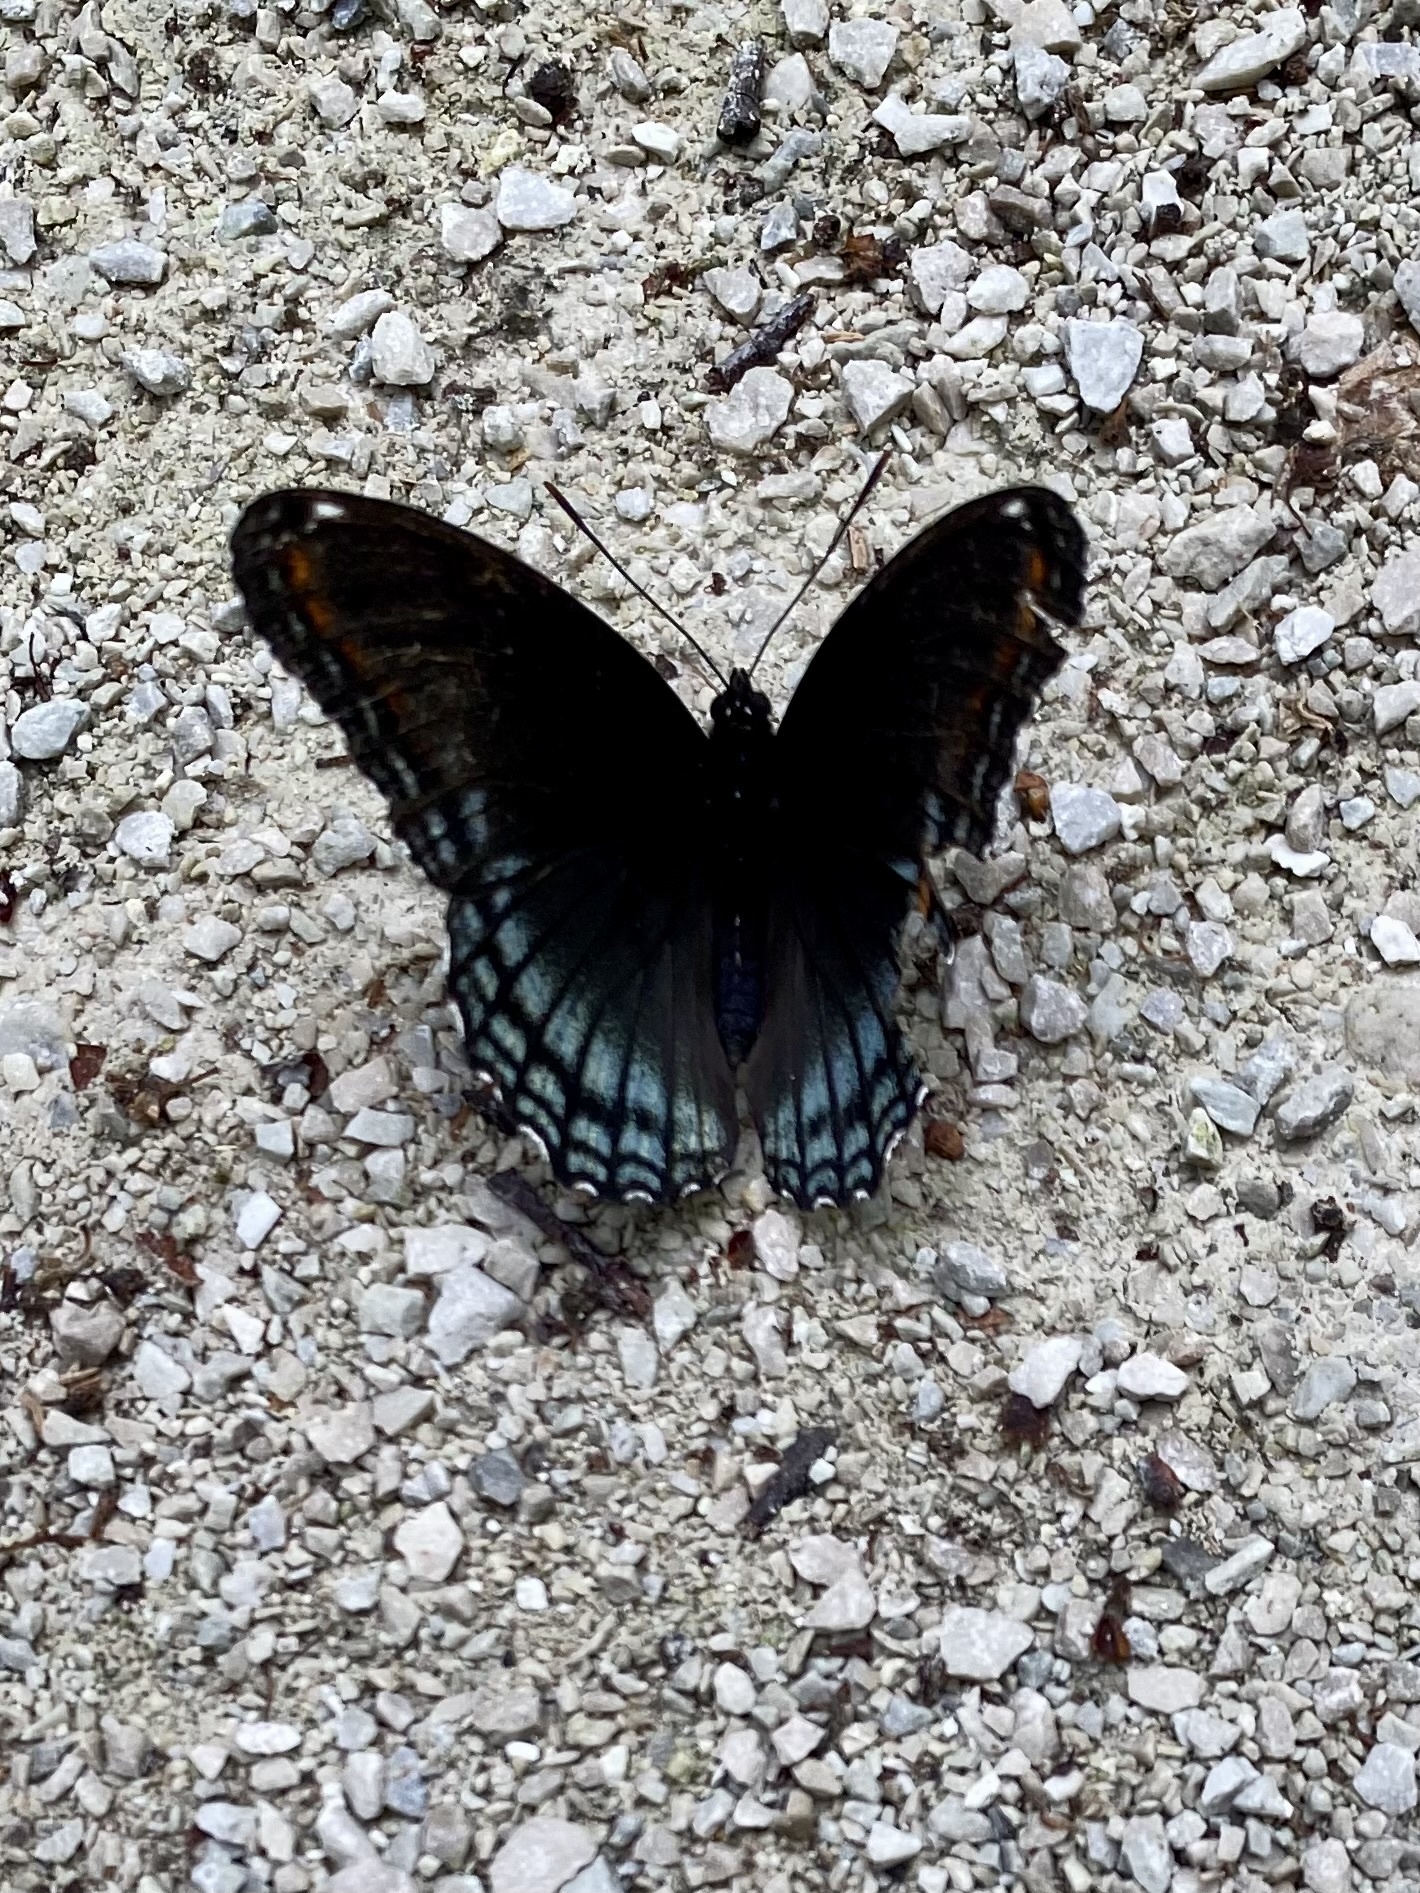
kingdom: Animalia
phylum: Arthropoda
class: Insecta
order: Lepidoptera
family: Nymphalidae
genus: Limenitis
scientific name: Limenitis astyanax
